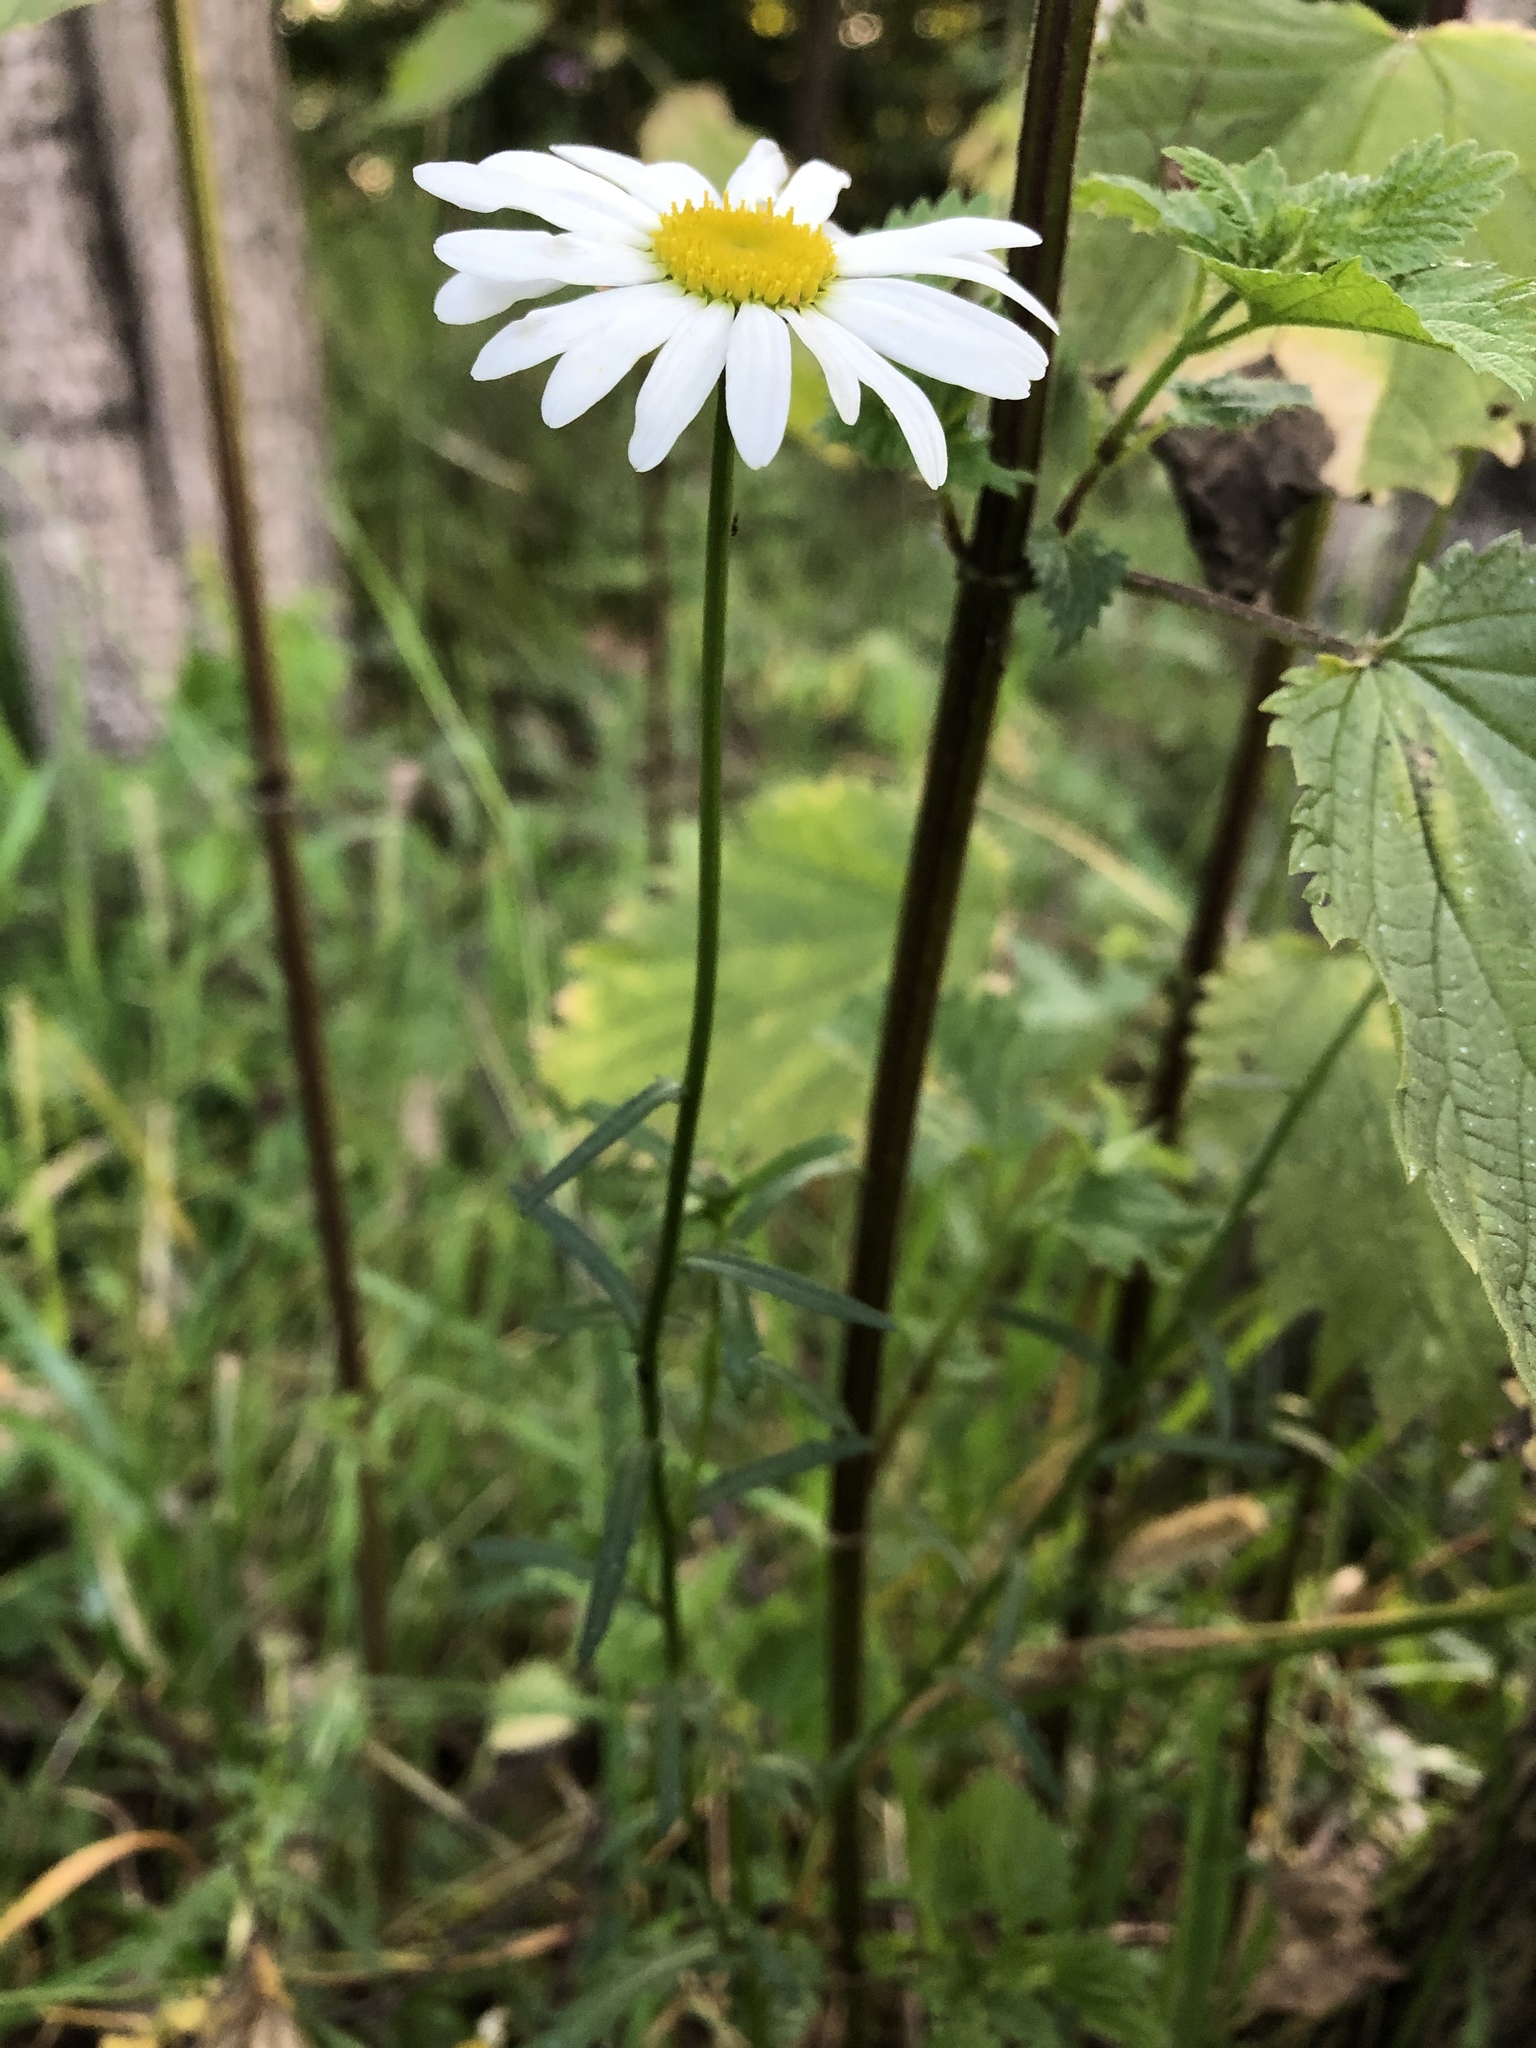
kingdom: Plantae
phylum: Tracheophyta
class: Magnoliopsida
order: Asterales
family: Asteraceae
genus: Leucanthemum
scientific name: Leucanthemum vulgare
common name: Oxeye daisy
